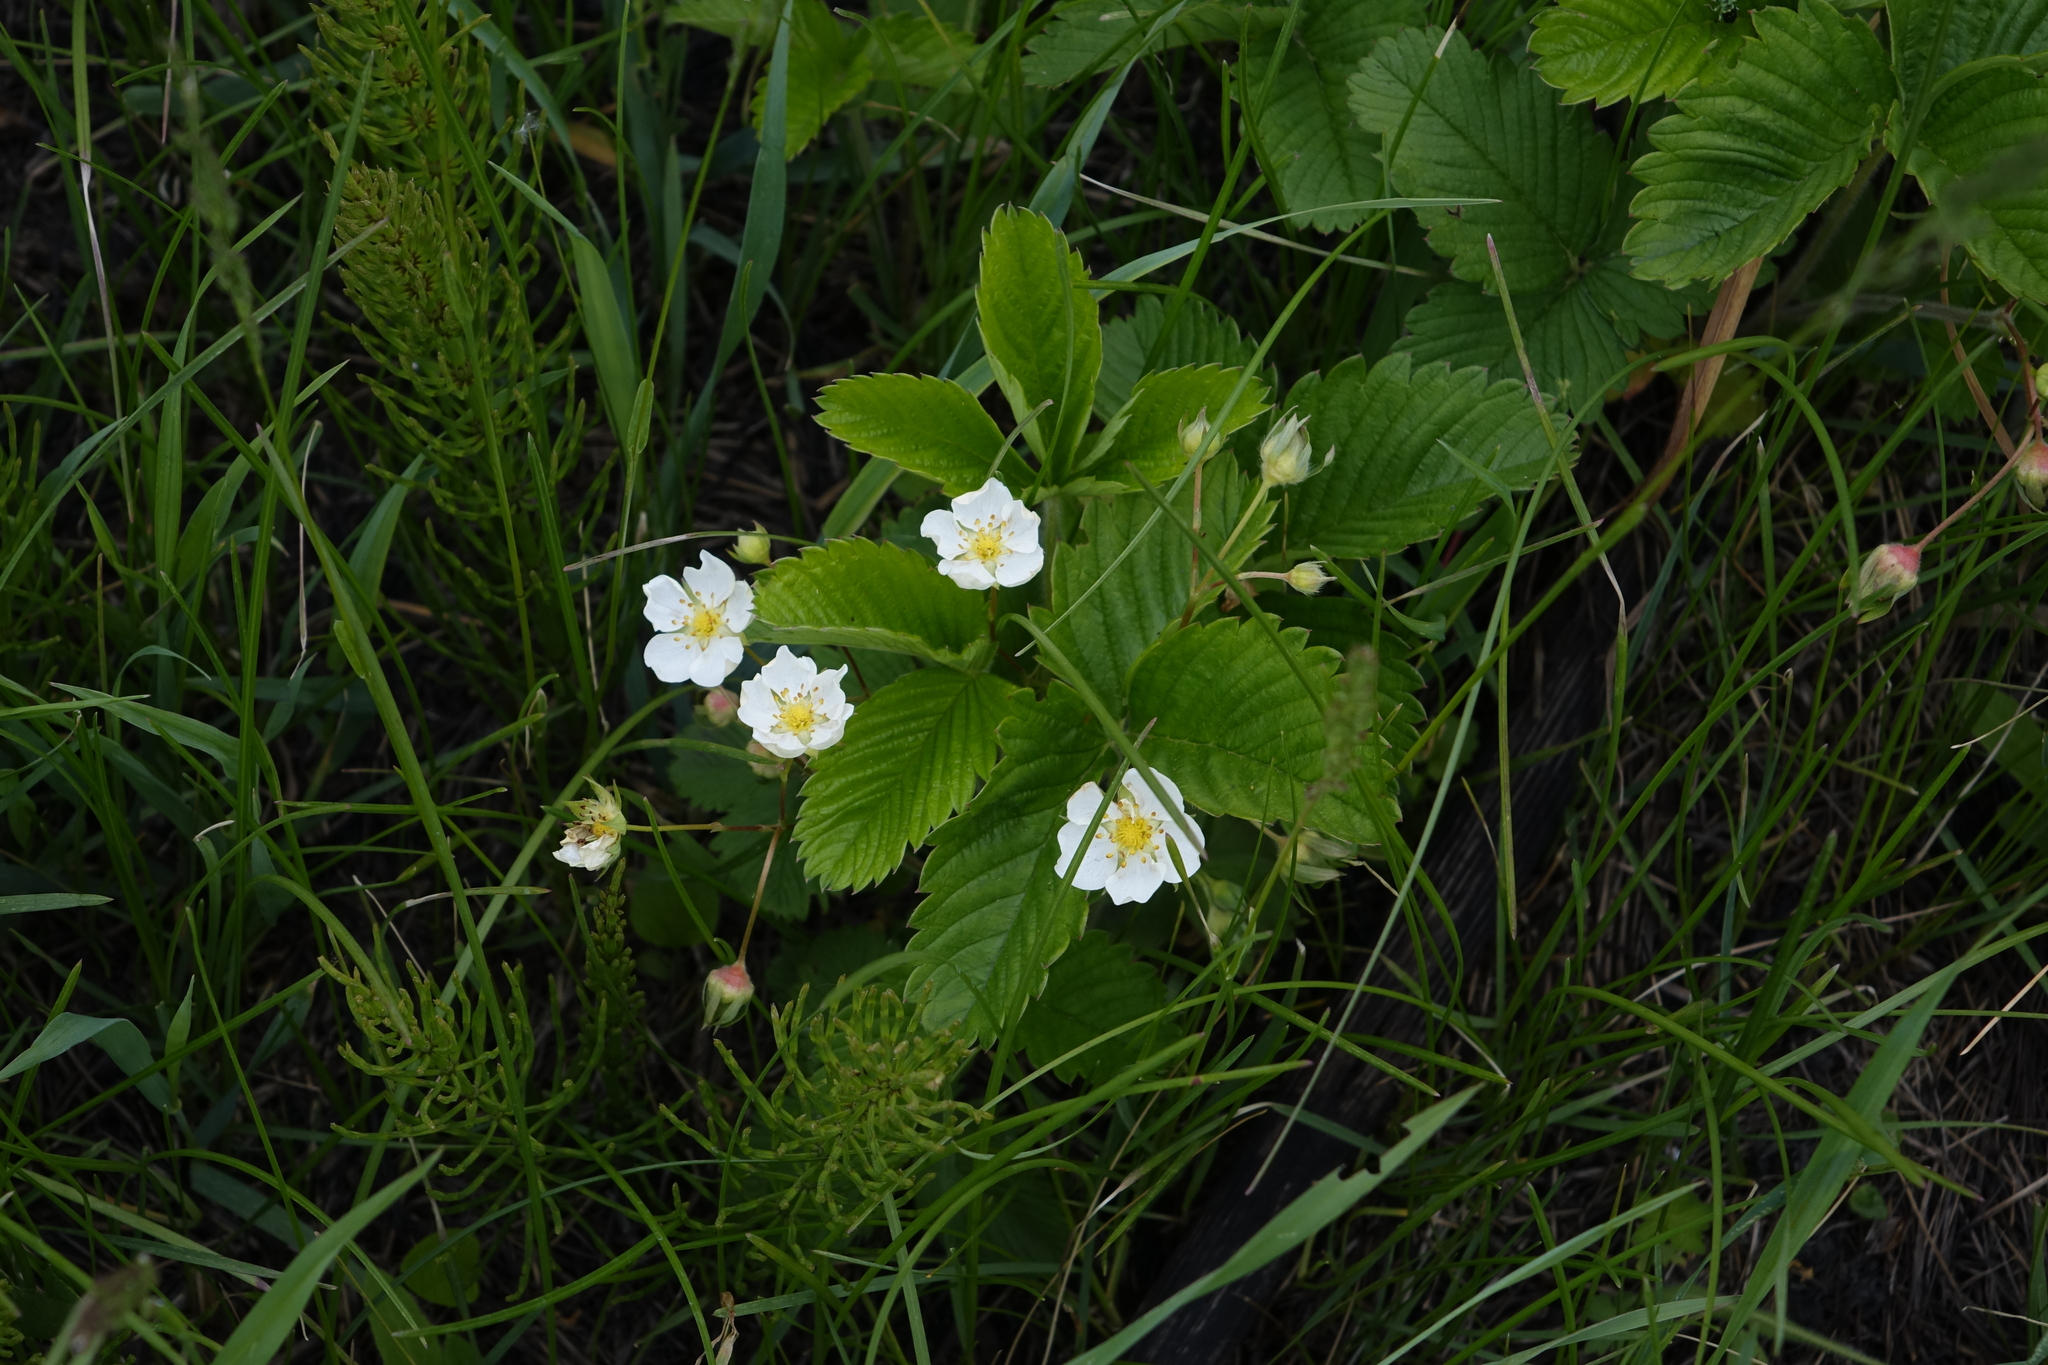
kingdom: Plantae
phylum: Tracheophyta
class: Magnoliopsida
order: Rosales
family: Rosaceae
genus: Fragaria
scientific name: Fragaria viridis
